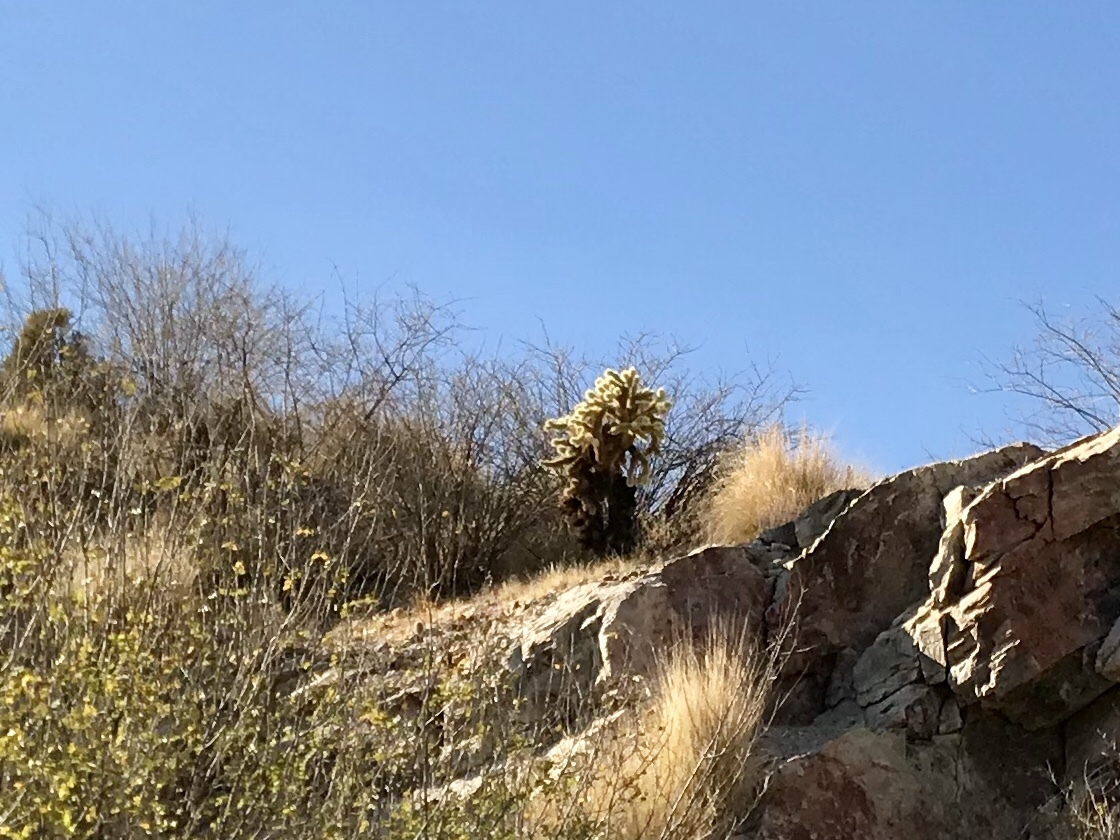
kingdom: Plantae
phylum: Tracheophyta
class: Magnoliopsida
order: Caryophyllales
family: Cactaceae
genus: Cylindropuntia
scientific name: Cylindropuntia fosbergii
